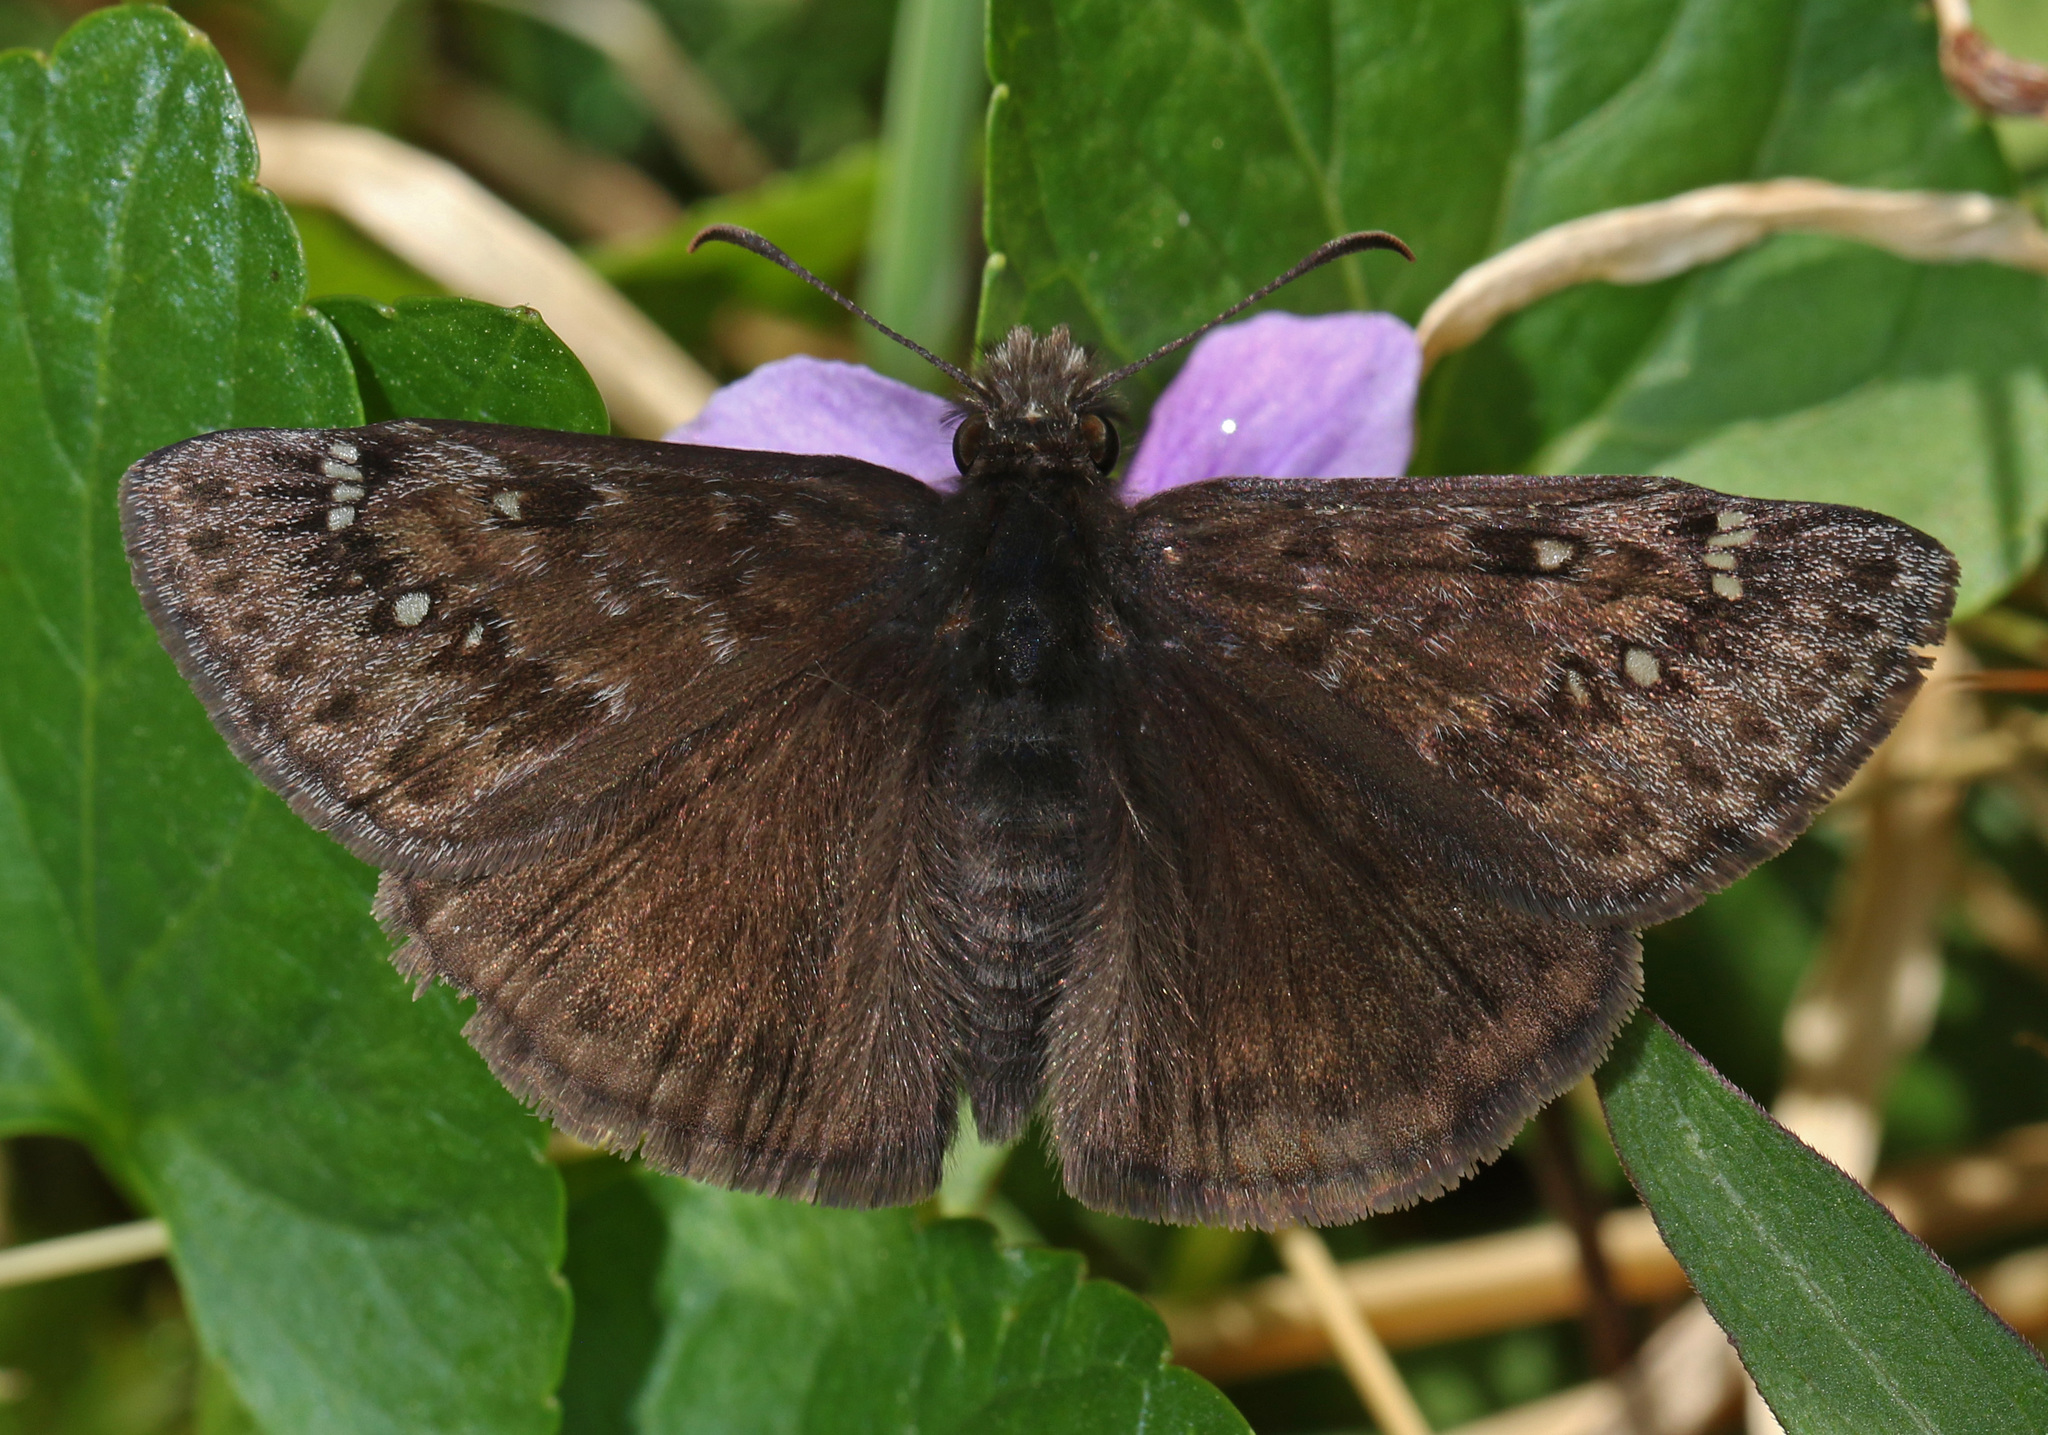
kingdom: Animalia
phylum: Arthropoda
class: Insecta
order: Lepidoptera
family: Hesperiidae
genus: Erynnis
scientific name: Erynnis juvenalis
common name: Juvenal's duskywing
